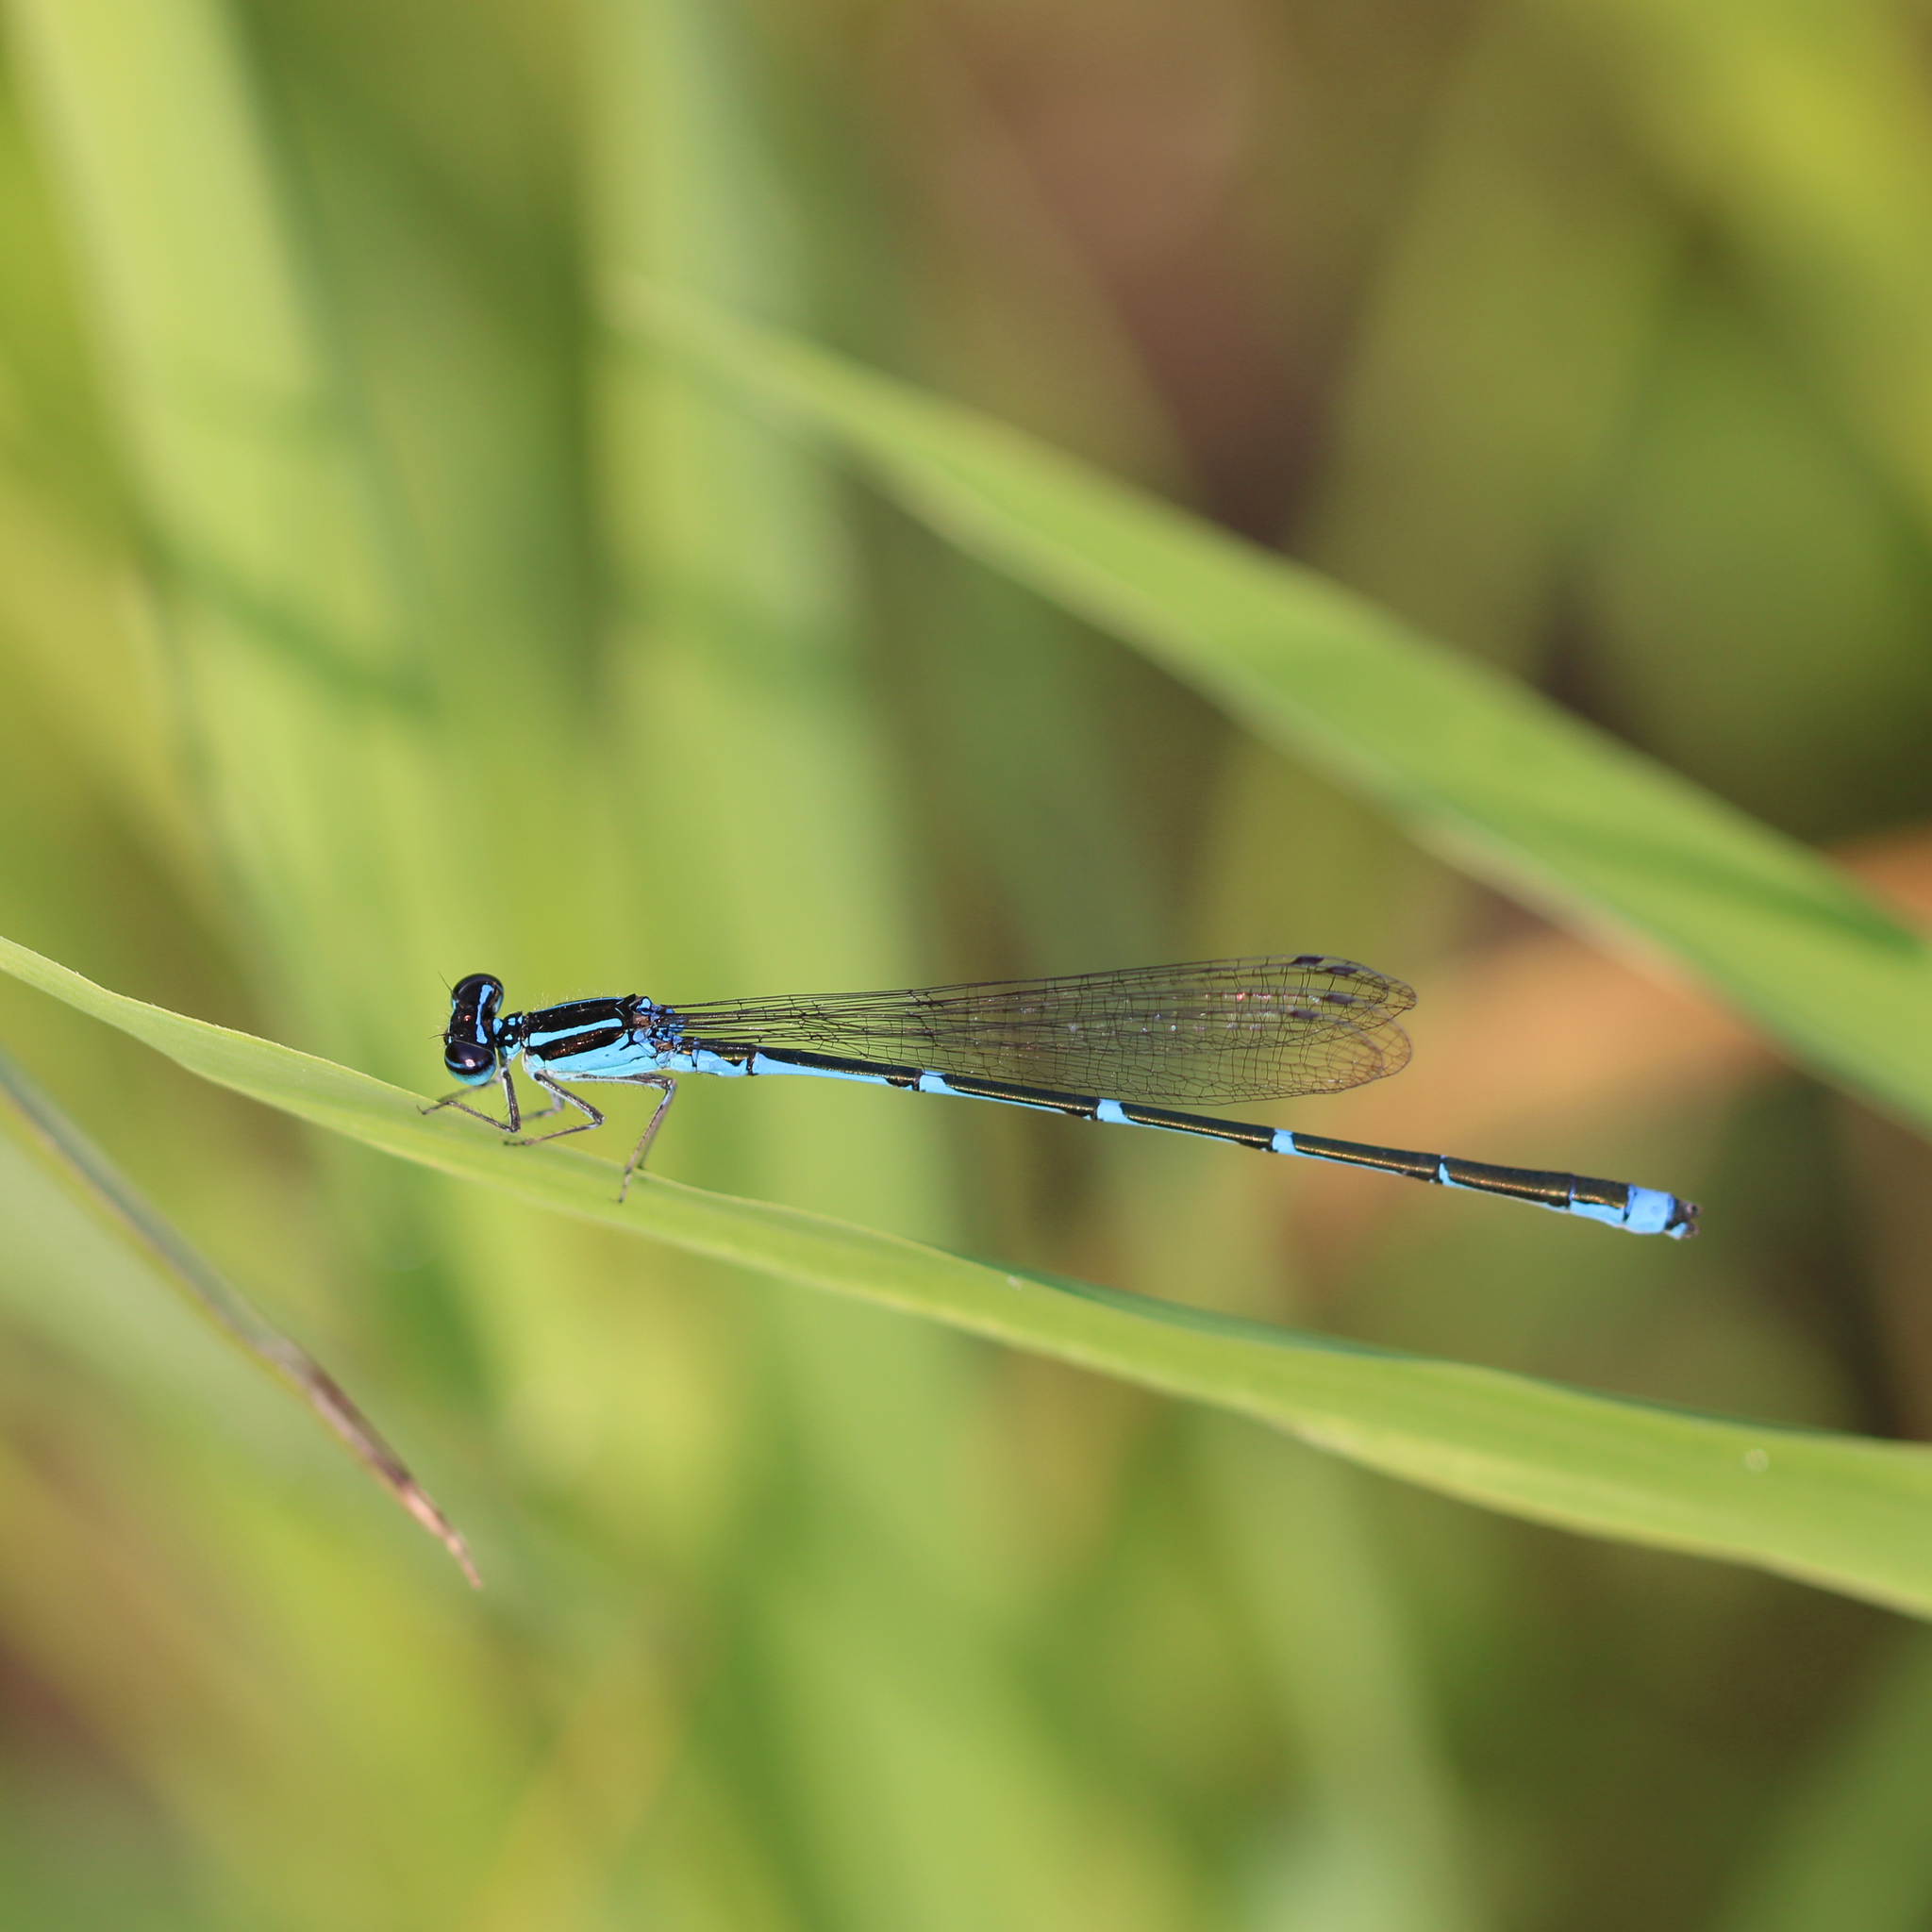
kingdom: Animalia
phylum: Arthropoda
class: Insecta
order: Odonata
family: Coenagrionidae
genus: Enallagma
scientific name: Enallagma exsulans
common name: Stream bluet
